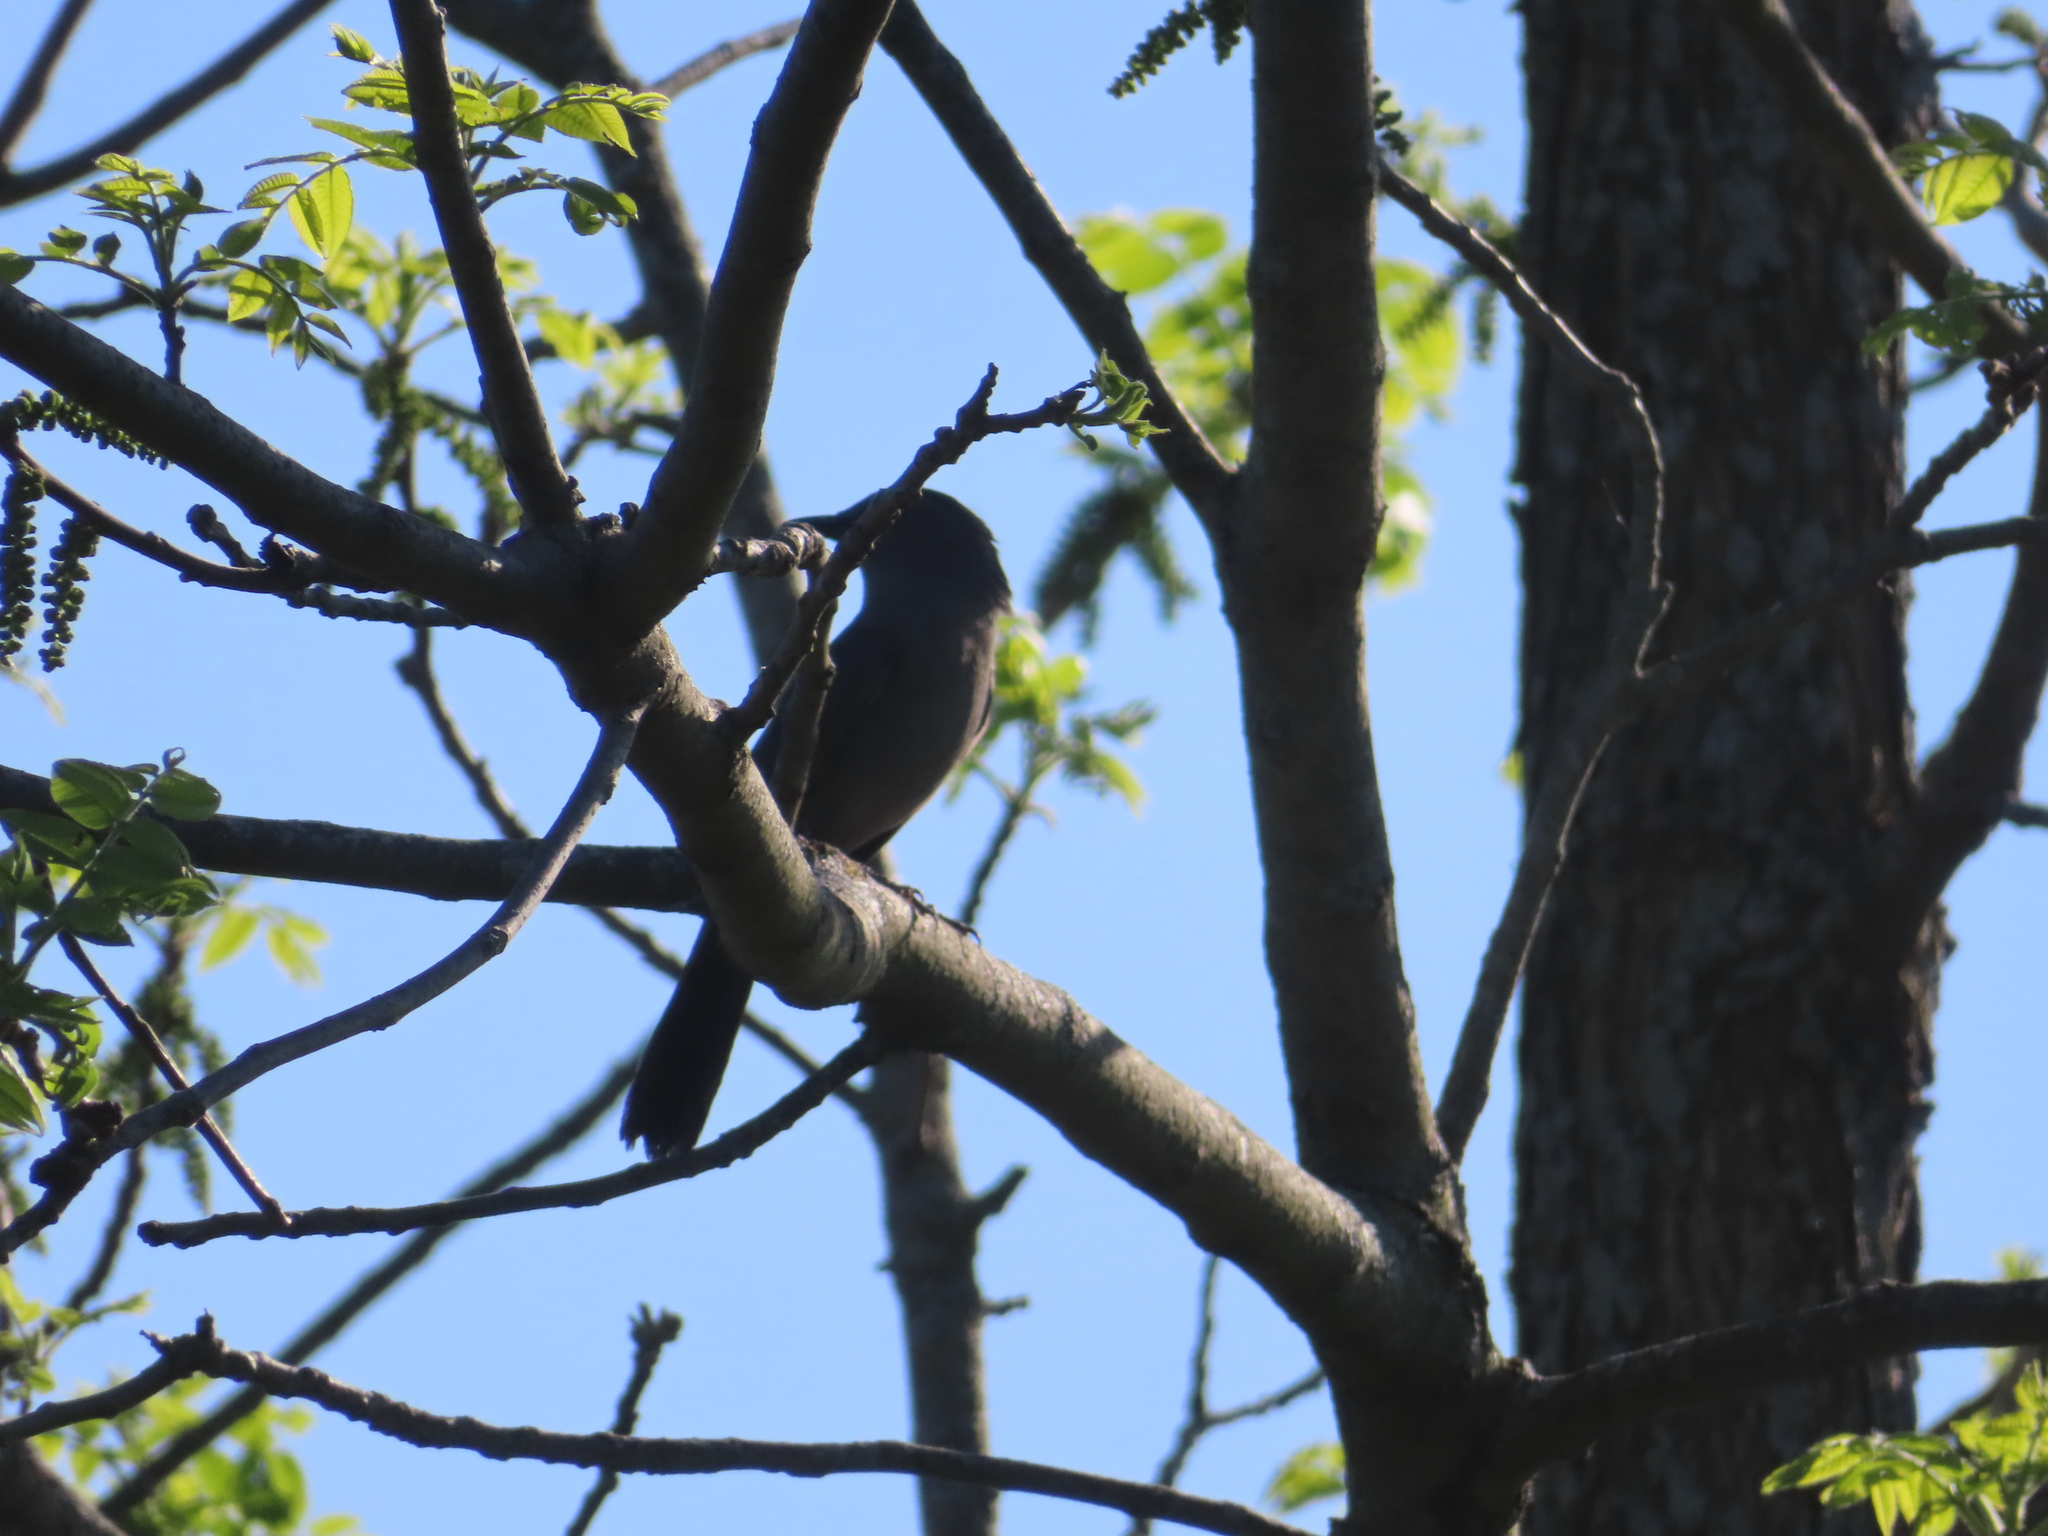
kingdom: Animalia
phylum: Chordata
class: Aves
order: Passeriformes
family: Mimidae
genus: Dumetella
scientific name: Dumetella carolinensis
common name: Gray catbird
